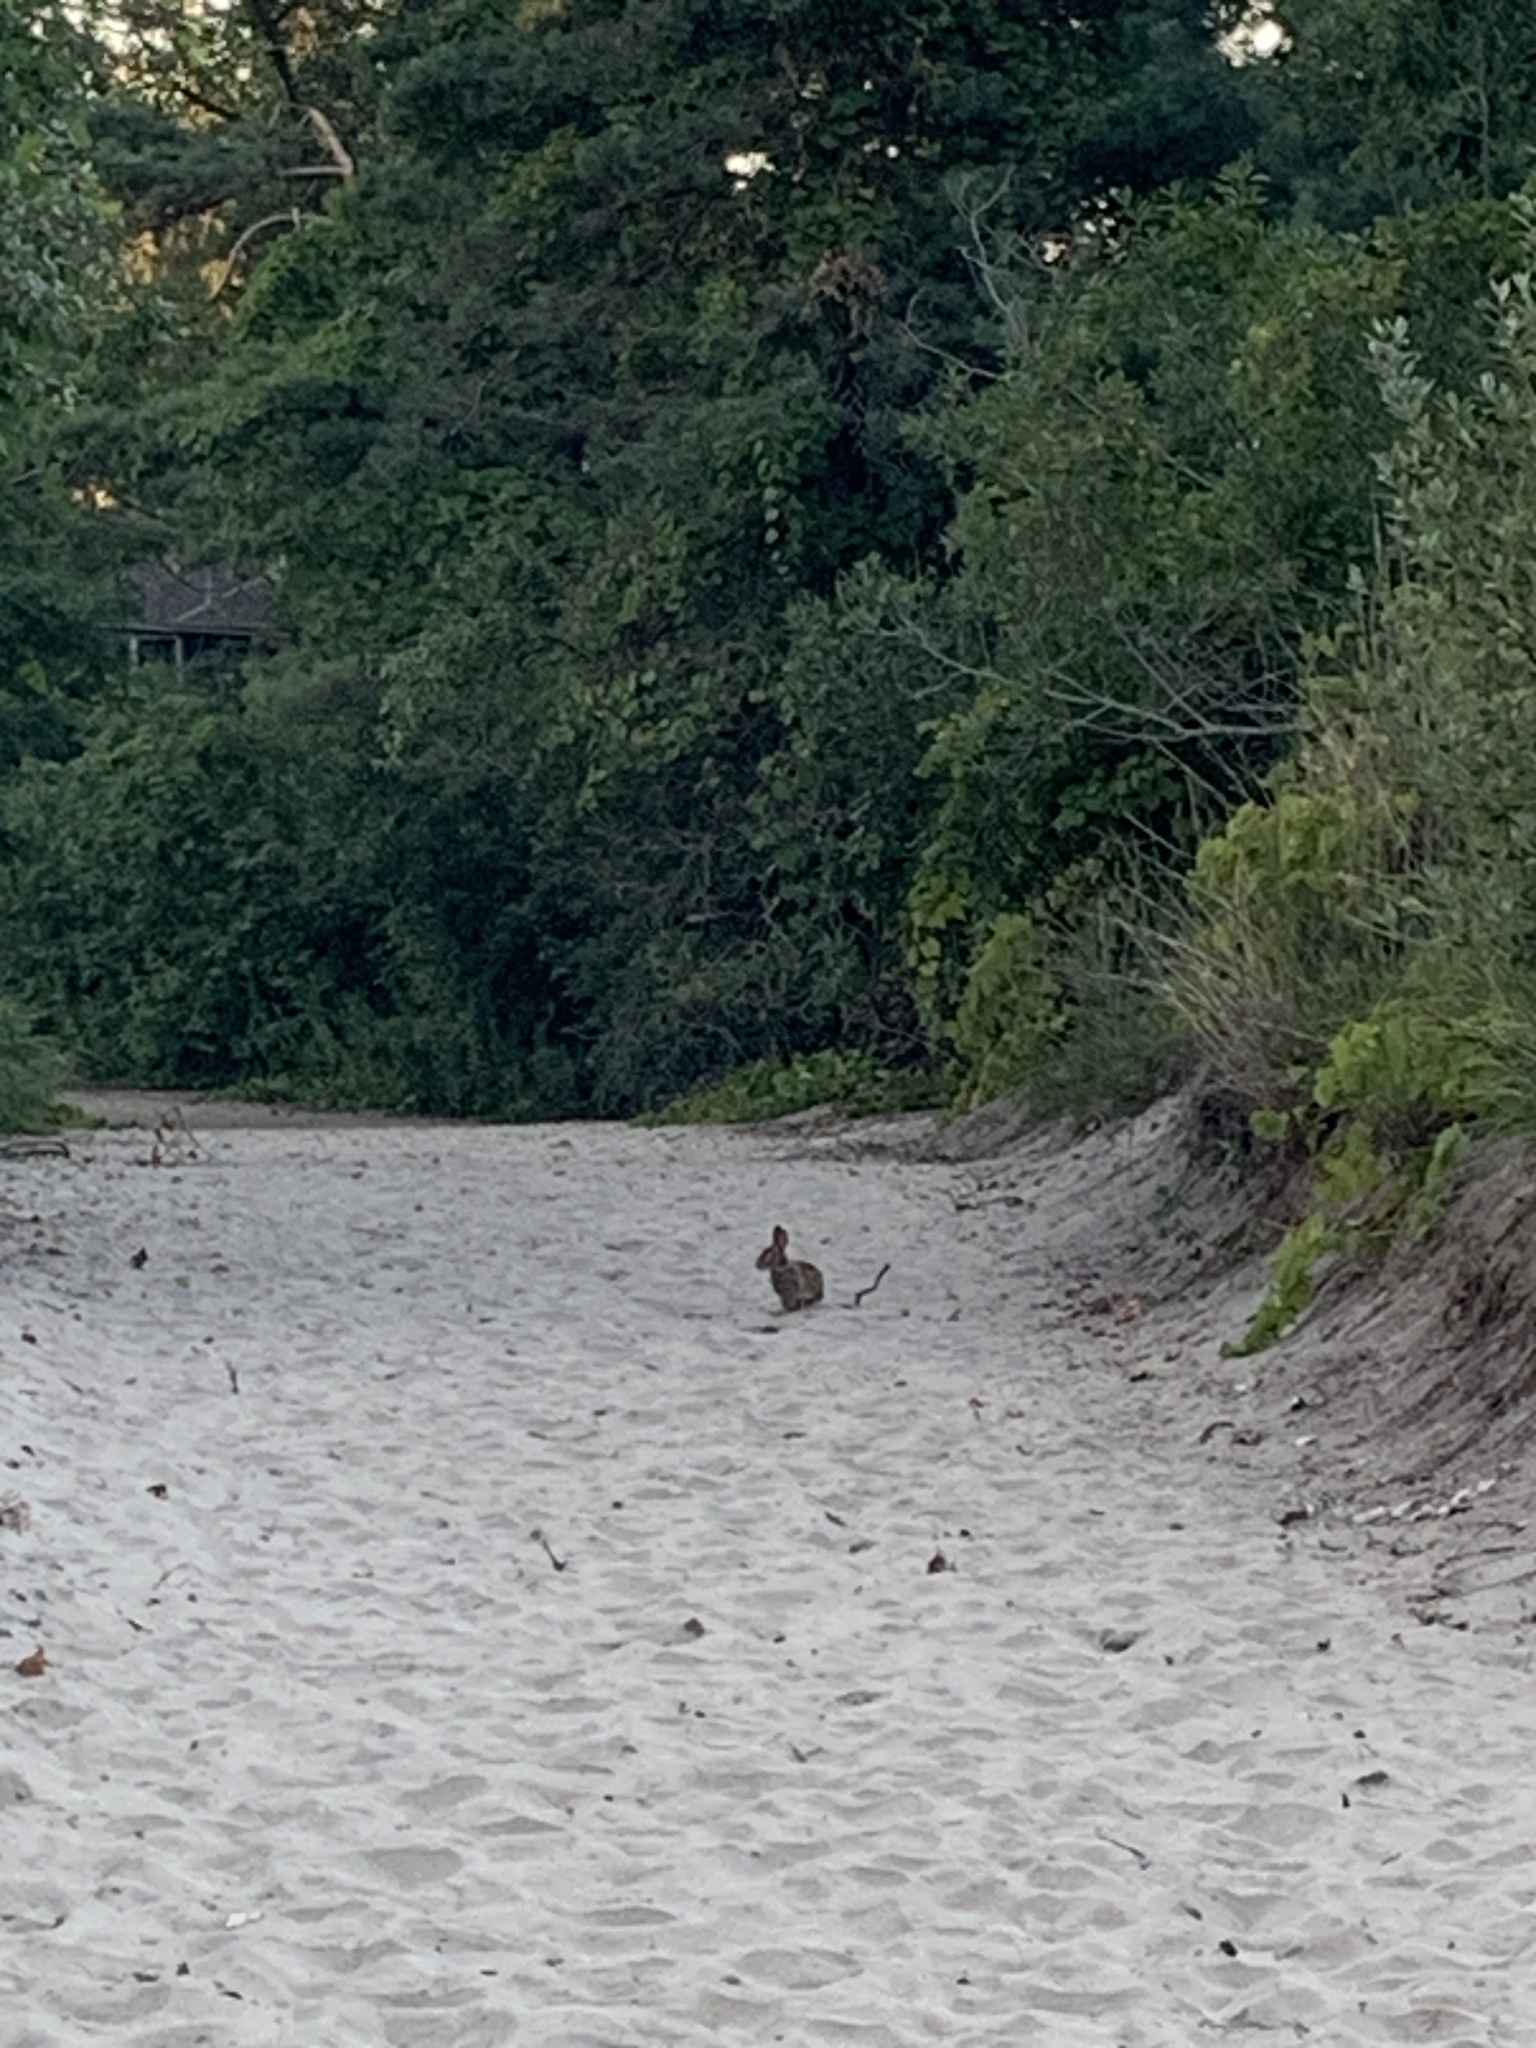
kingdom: Animalia
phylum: Chordata
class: Mammalia
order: Lagomorpha
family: Leporidae
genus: Sylvilagus
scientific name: Sylvilagus floridanus
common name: Eastern cottontail
